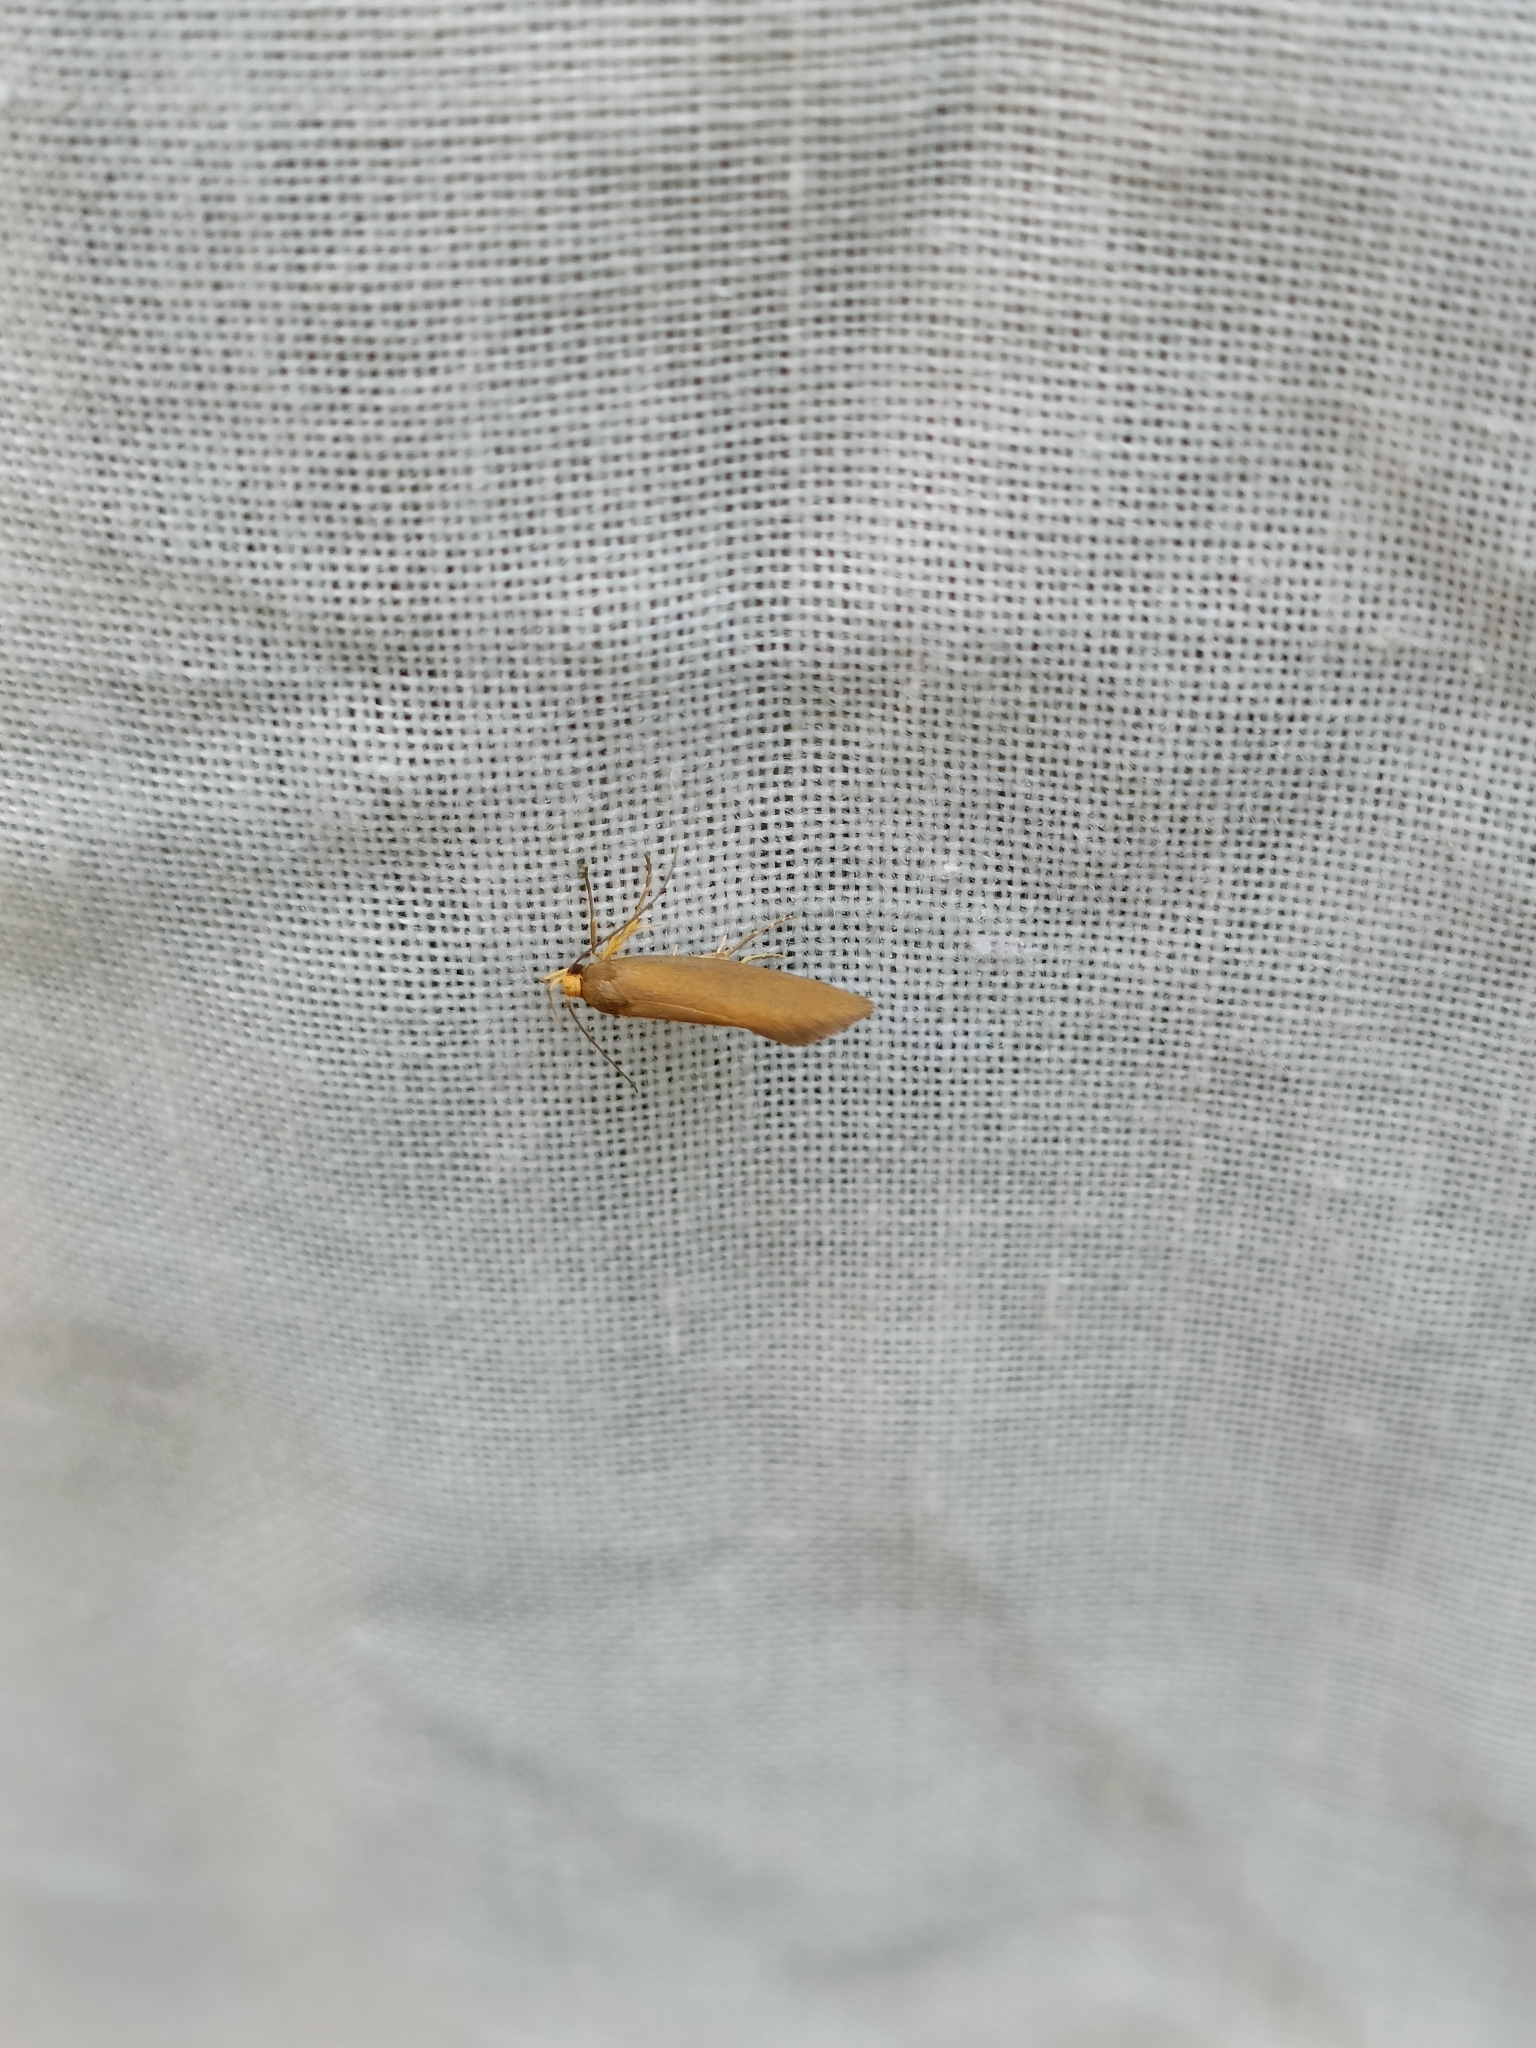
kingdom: Animalia
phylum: Arthropoda
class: Insecta
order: Lepidoptera
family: Oecophoridae
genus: Borkhausenia
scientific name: Borkhausenia Crassa unitella
